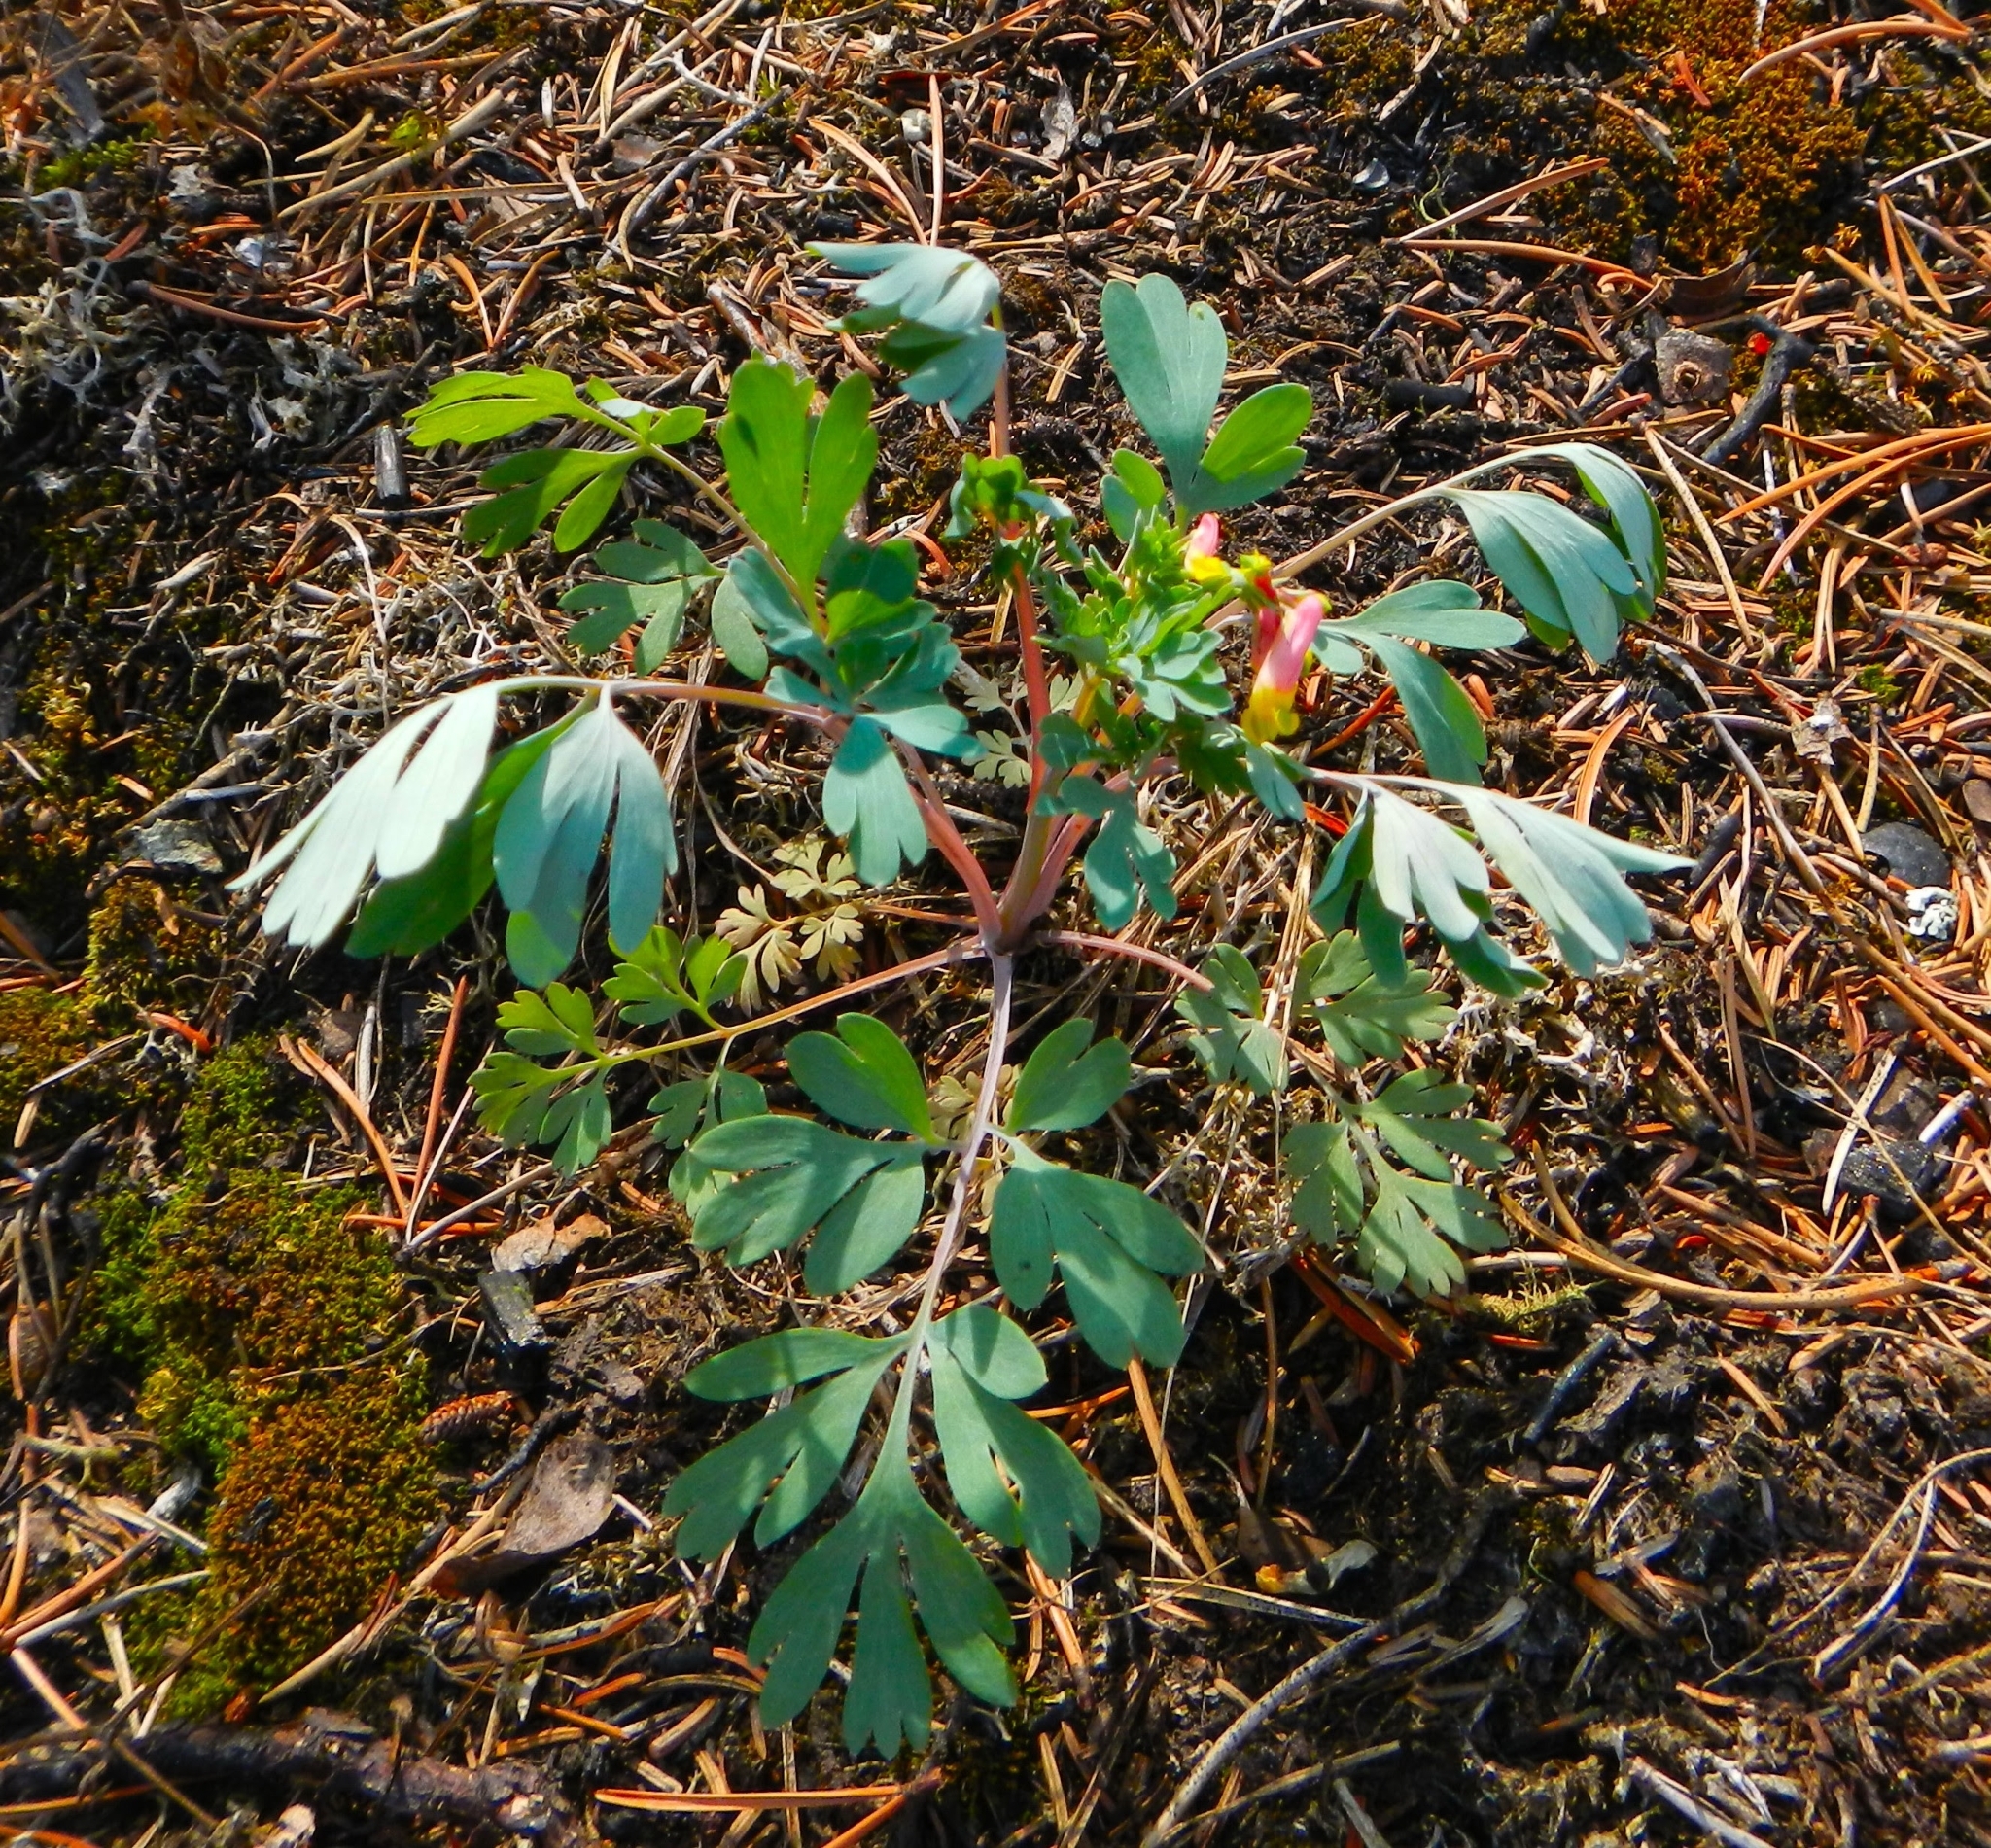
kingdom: Plantae
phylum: Tracheophyta
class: Magnoliopsida
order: Ranunculales
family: Papaveraceae
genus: Capnoides
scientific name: Capnoides sempervirens
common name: Rock harlequin
